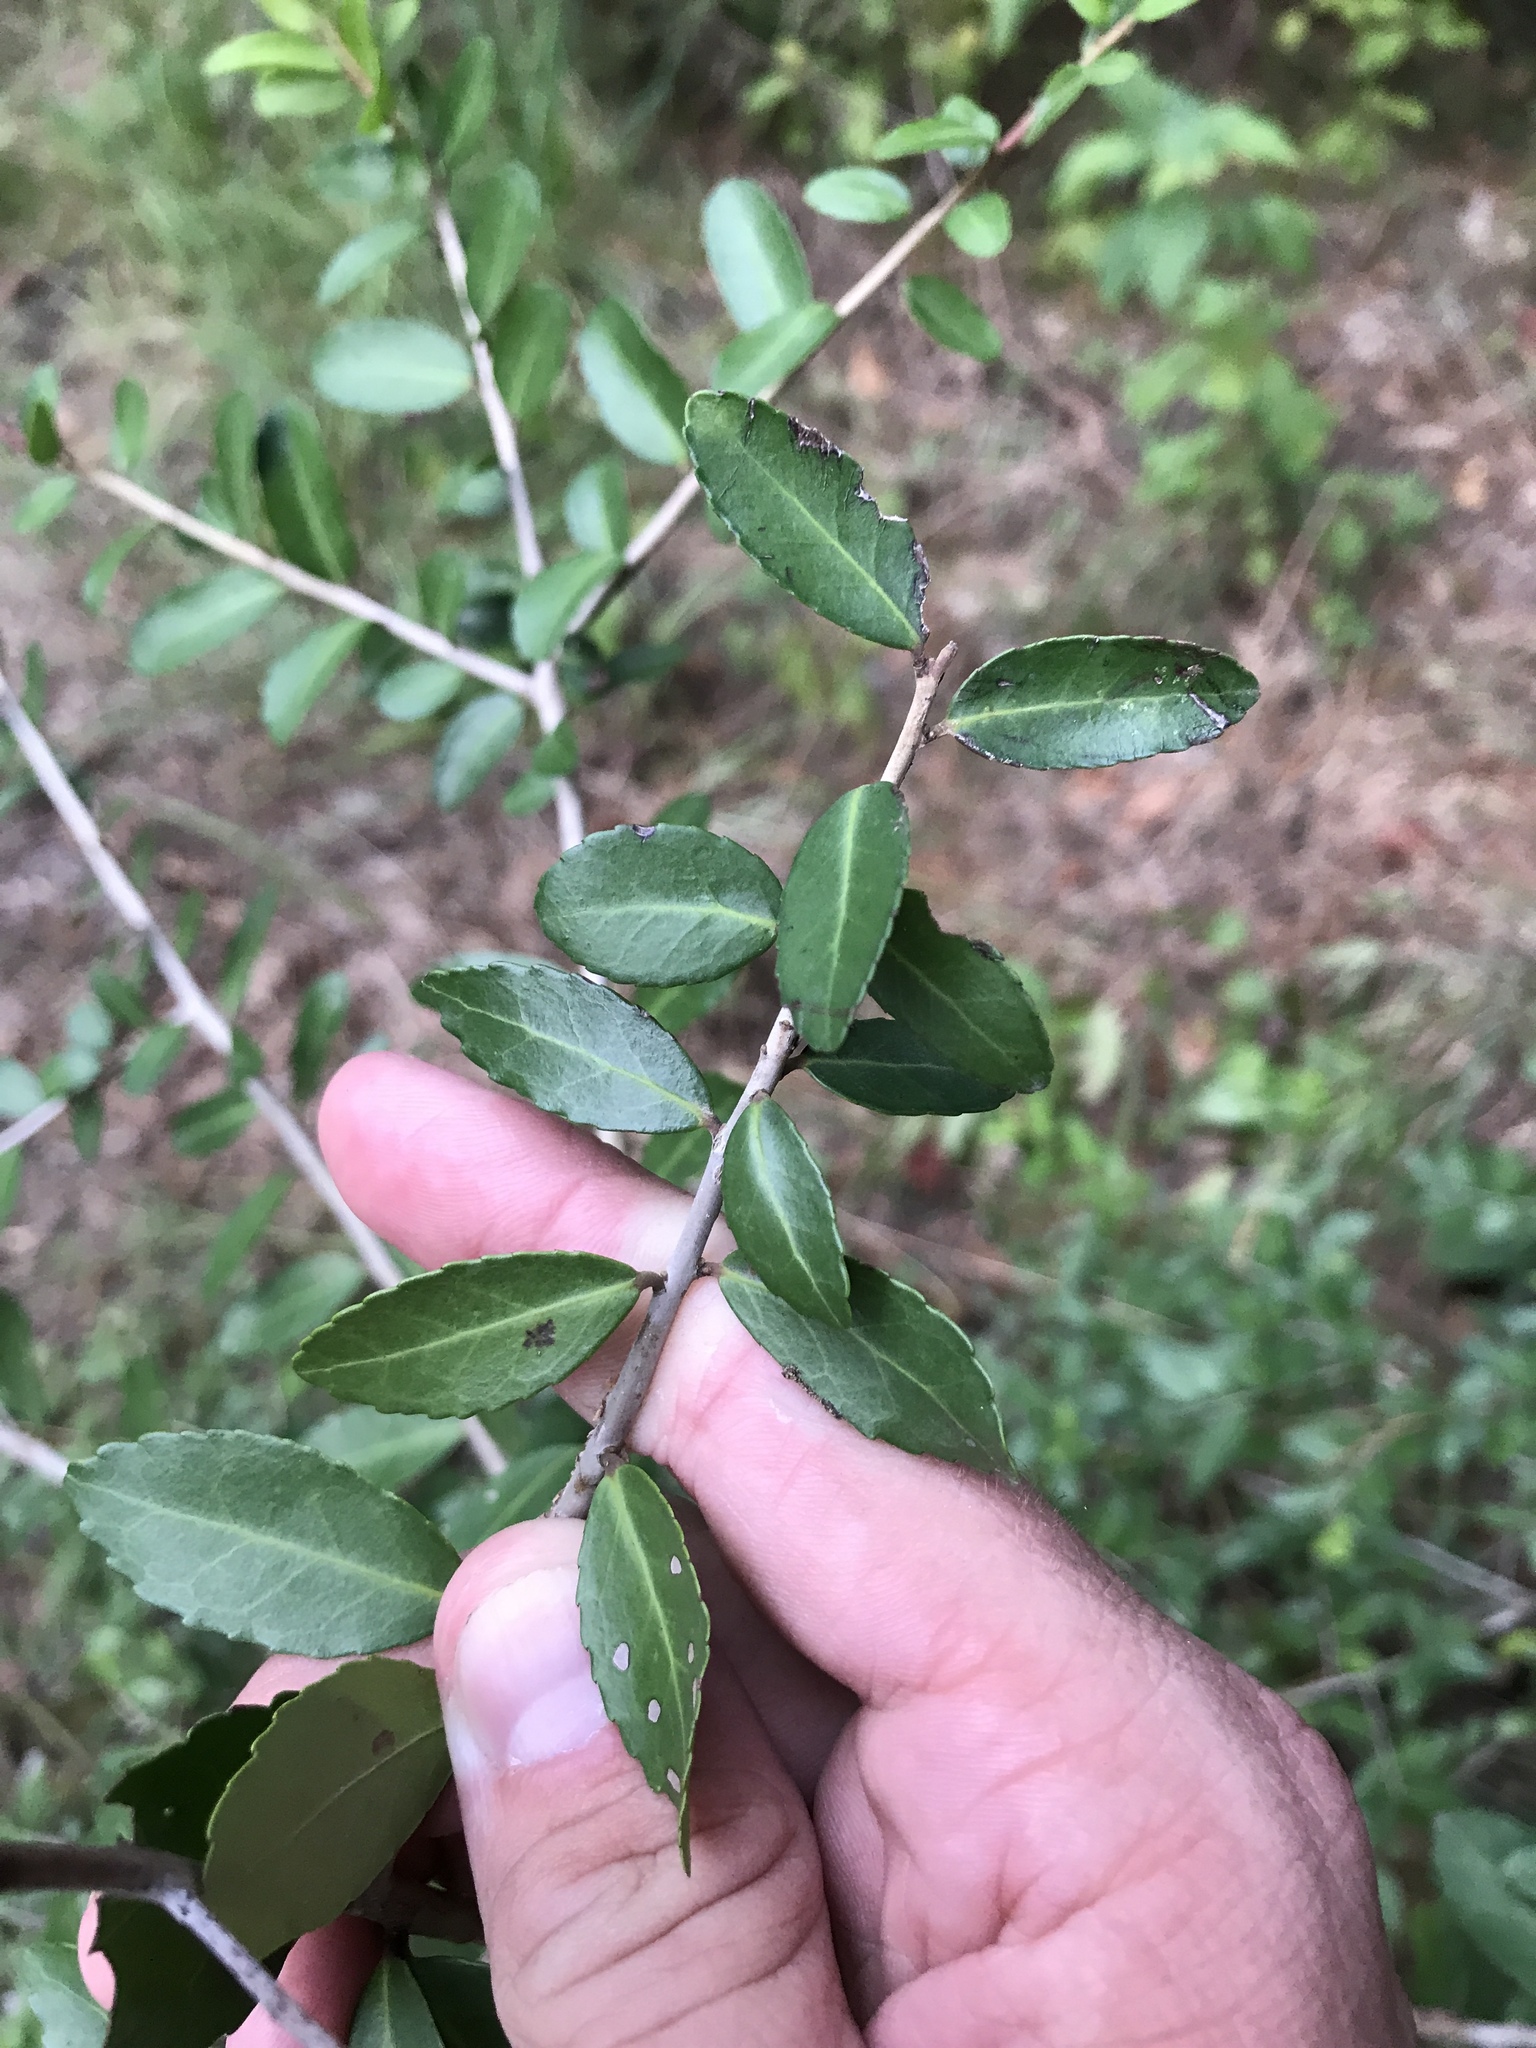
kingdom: Plantae
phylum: Tracheophyta
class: Magnoliopsida
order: Aquifoliales
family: Aquifoliaceae
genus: Ilex
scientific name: Ilex vomitoria
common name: Yaupon holly
